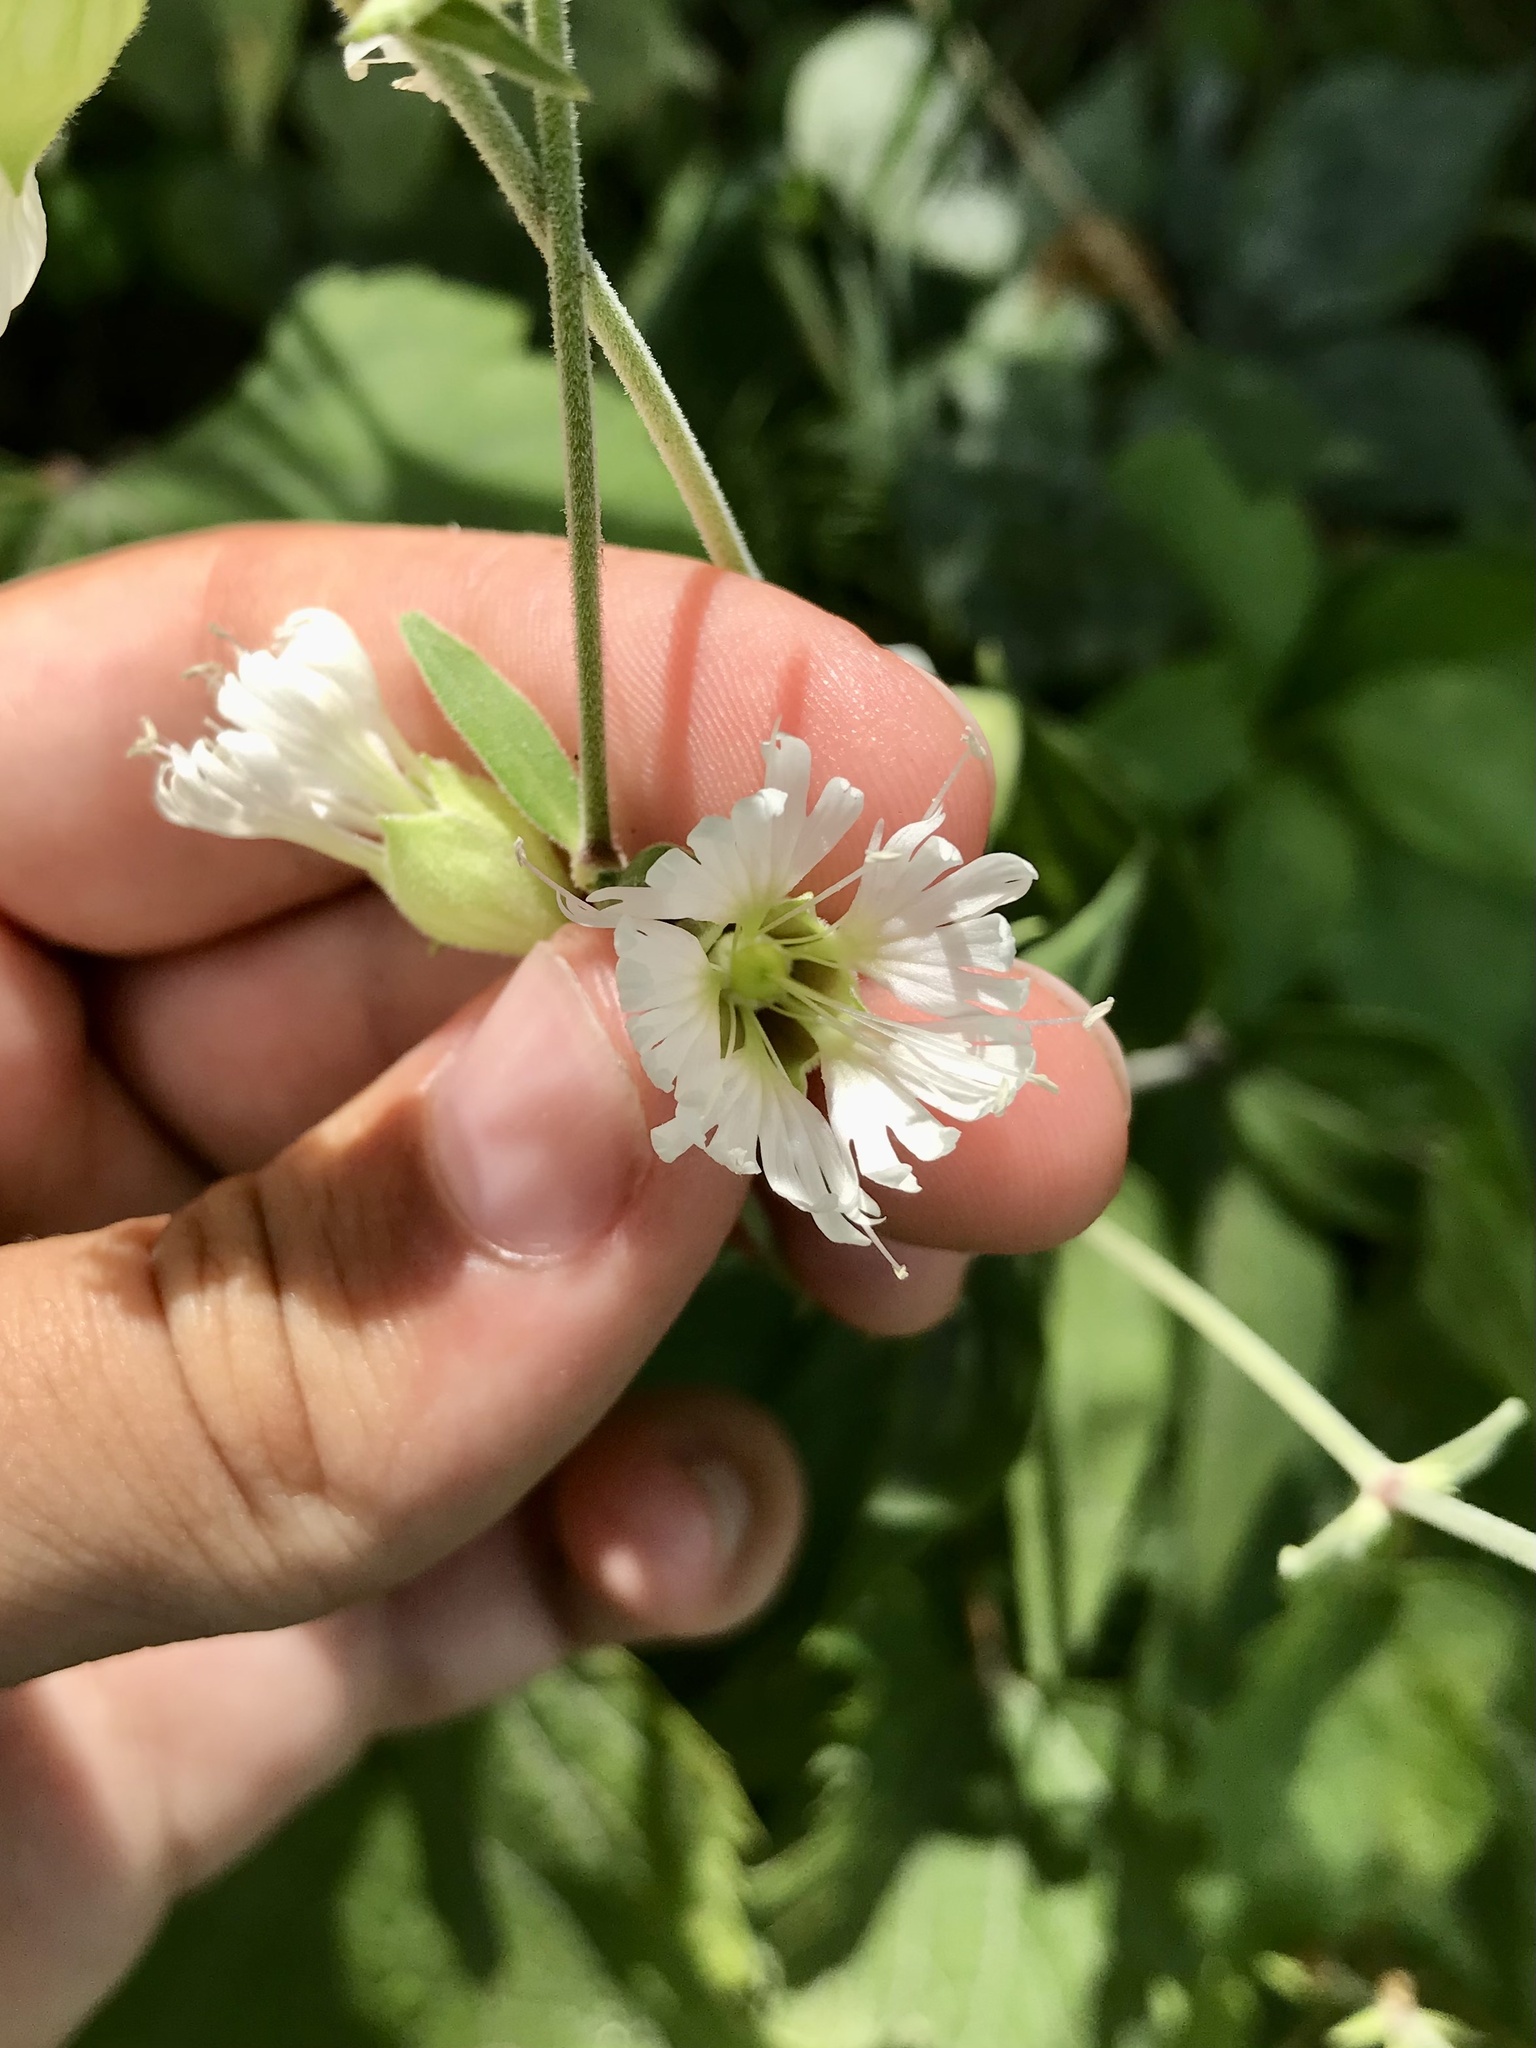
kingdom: Plantae
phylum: Tracheophyta
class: Magnoliopsida
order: Caryophyllales
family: Caryophyllaceae
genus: Silene
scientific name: Silene stellata
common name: Starry campion
